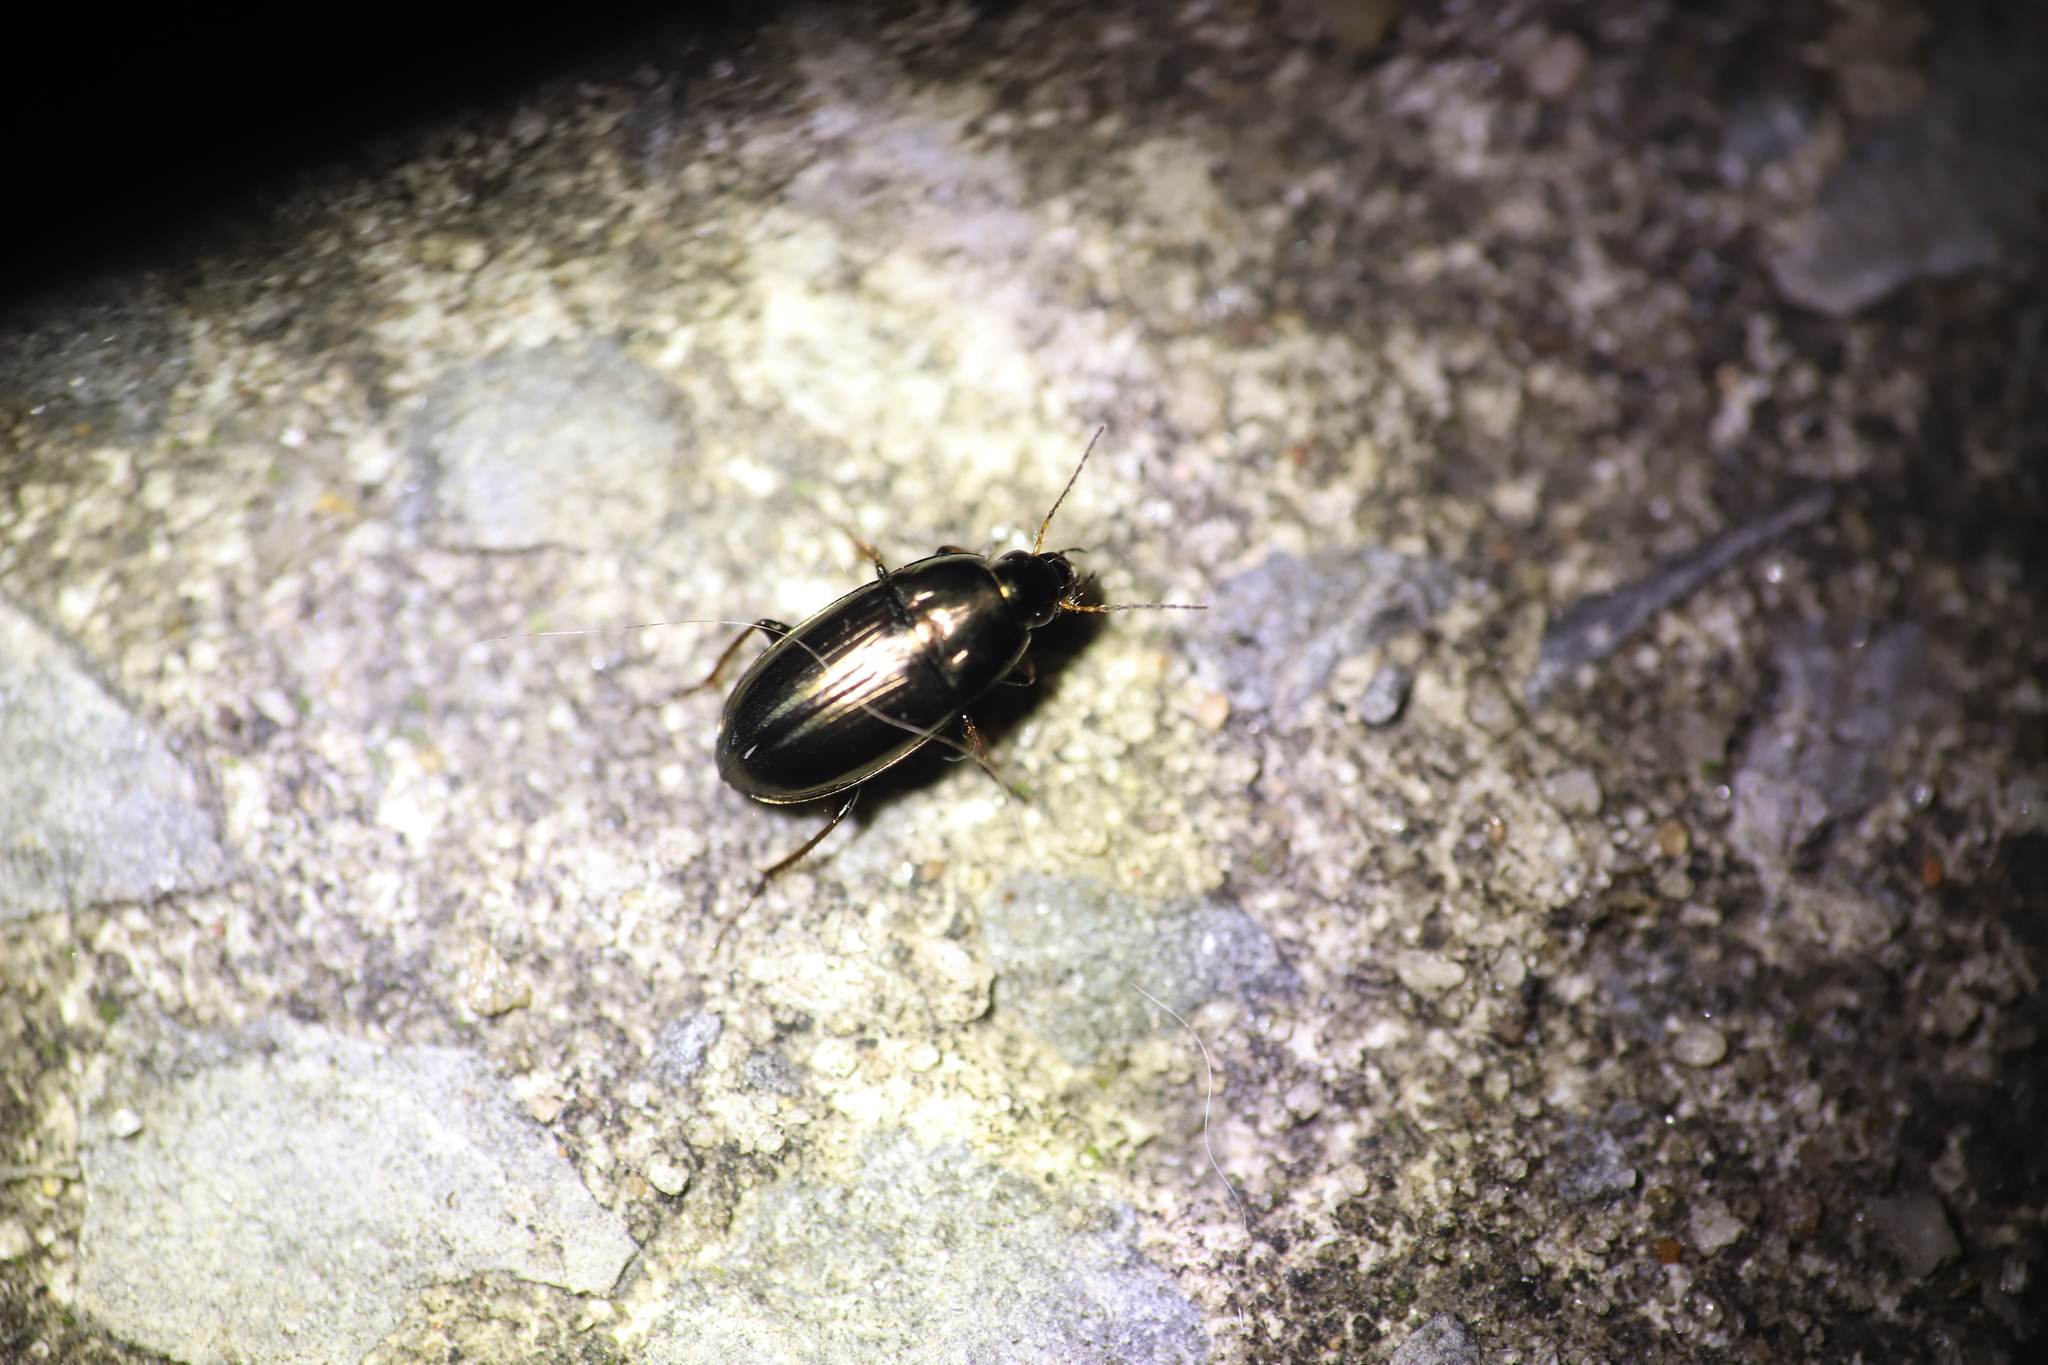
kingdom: Animalia
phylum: Arthropoda
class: Insecta
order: Coleoptera
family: Carabidae
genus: Amara
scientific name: Amara aenea
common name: Common sun beetle
